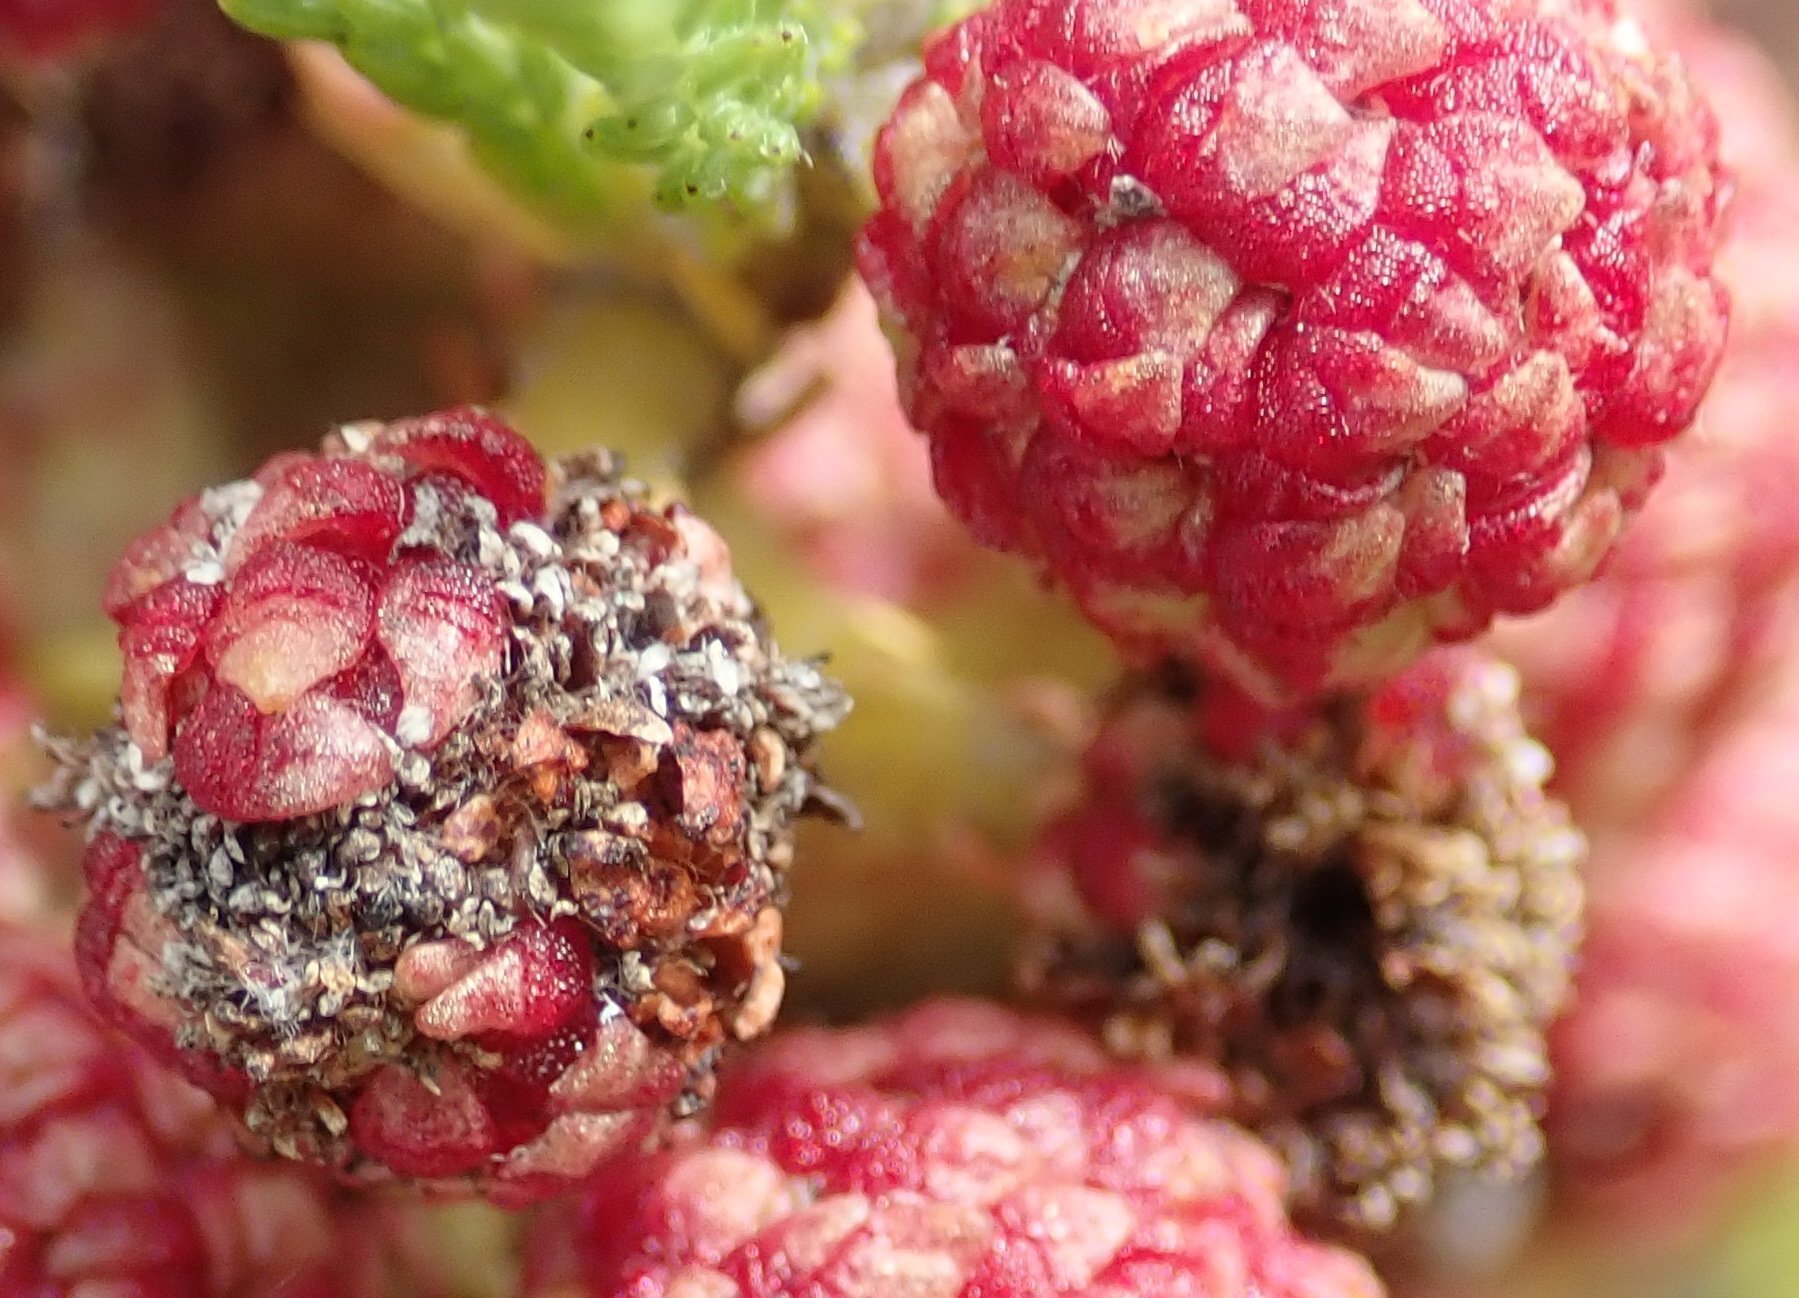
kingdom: Plantae
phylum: Tracheophyta
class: Magnoliopsida
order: Bruniales
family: Bruniaceae
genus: Berzelia
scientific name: Berzelia lanuginosa
